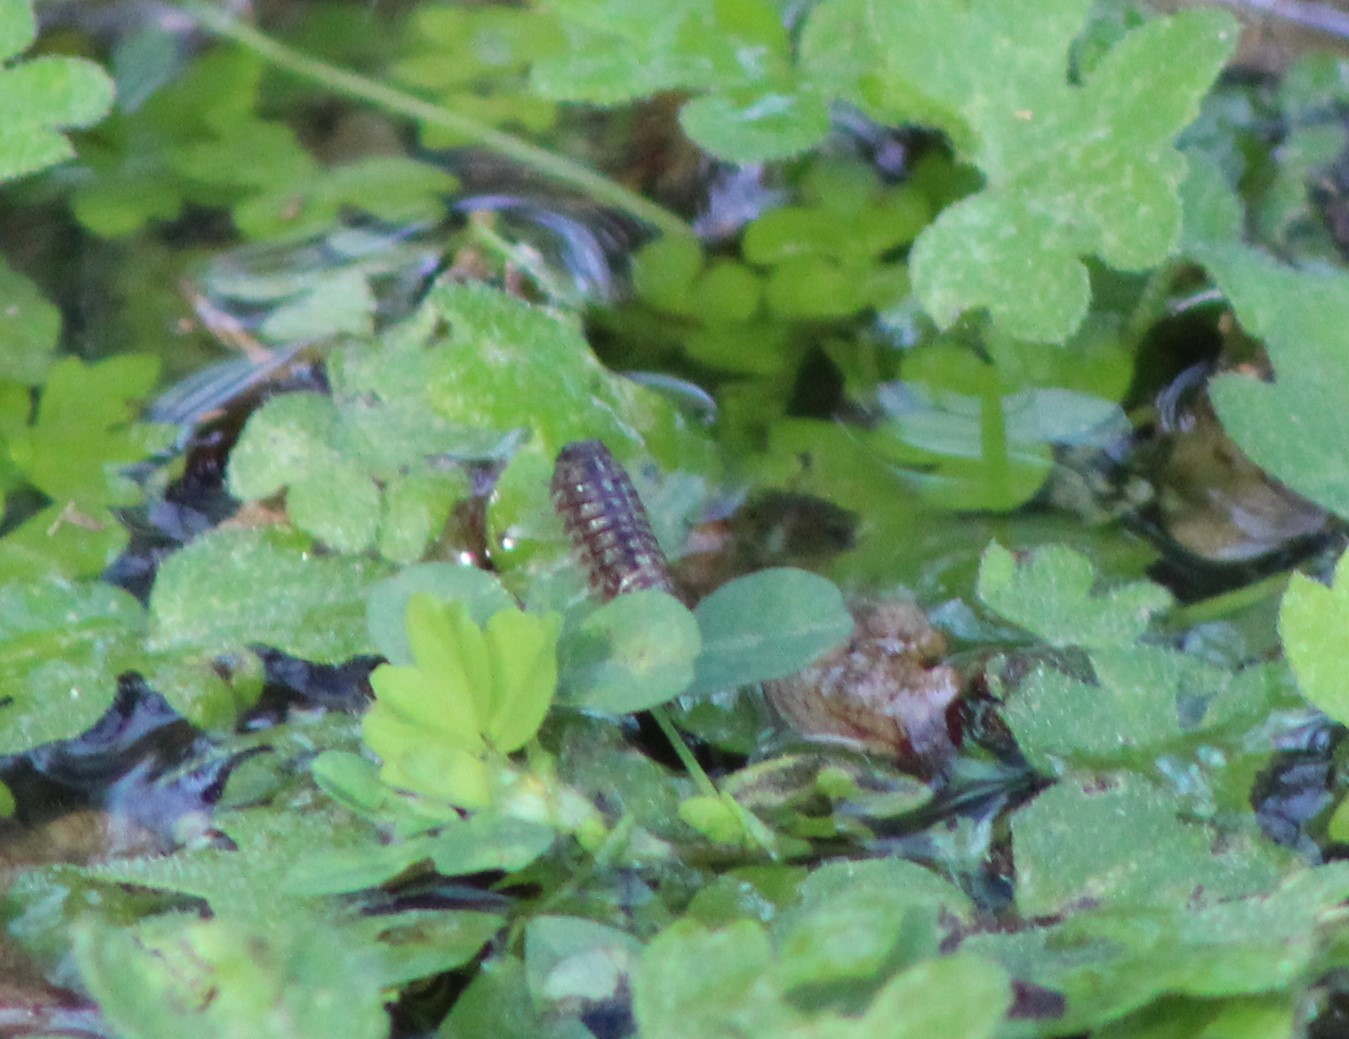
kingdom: Animalia
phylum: Arthropoda
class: Malacostraca
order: Isopoda
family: Armadillidiidae
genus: Armadillidium
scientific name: Armadillidium vulgare
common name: Common pill woodlouse
